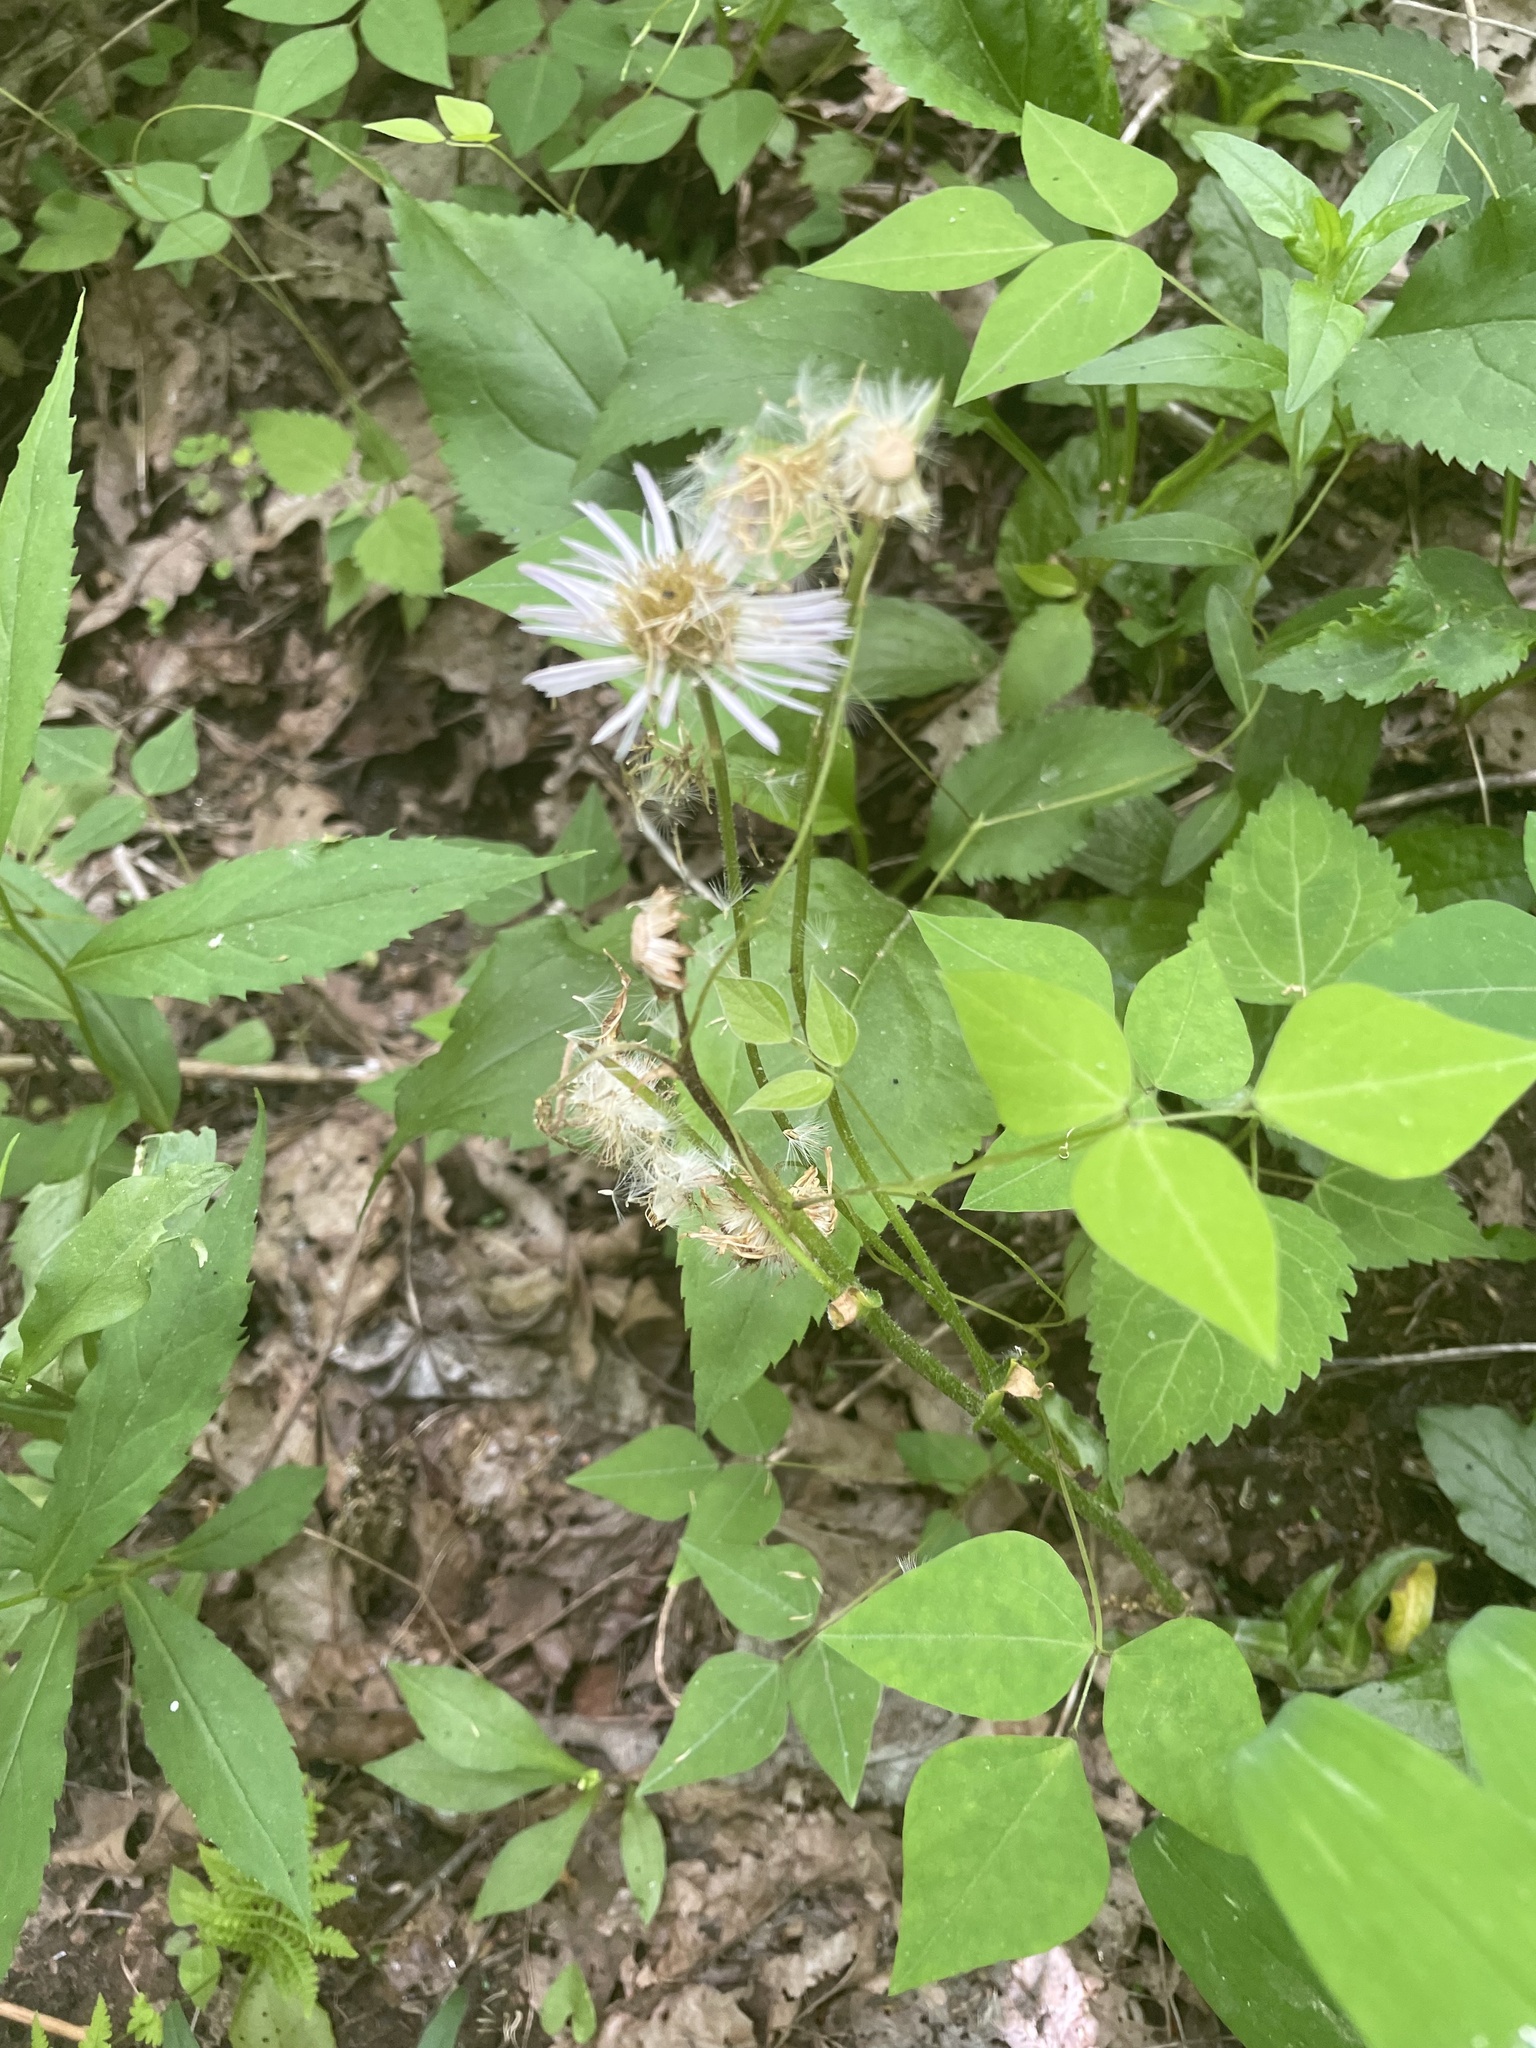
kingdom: Plantae
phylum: Tracheophyta
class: Magnoliopsida
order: Asterales
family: Asteraceae
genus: Erigeron
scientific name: Erigeron pulchellus
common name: Hairy fleabane
